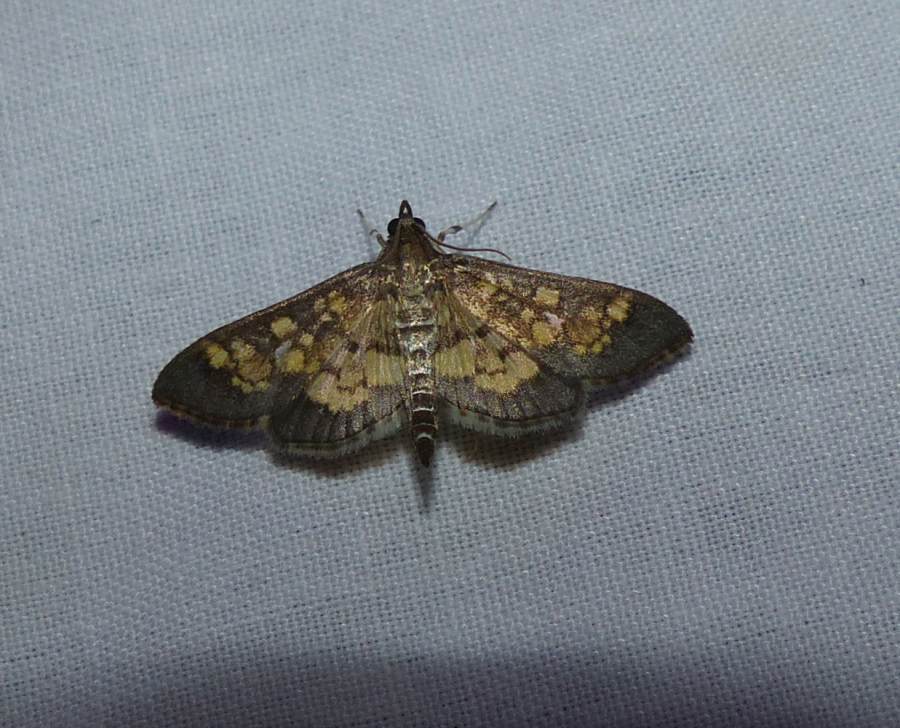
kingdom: Animalia
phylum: Arthropoda
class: Insecta
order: Lepidoptera
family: Crambidae
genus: Epipagis
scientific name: Epipagis adipaloides
